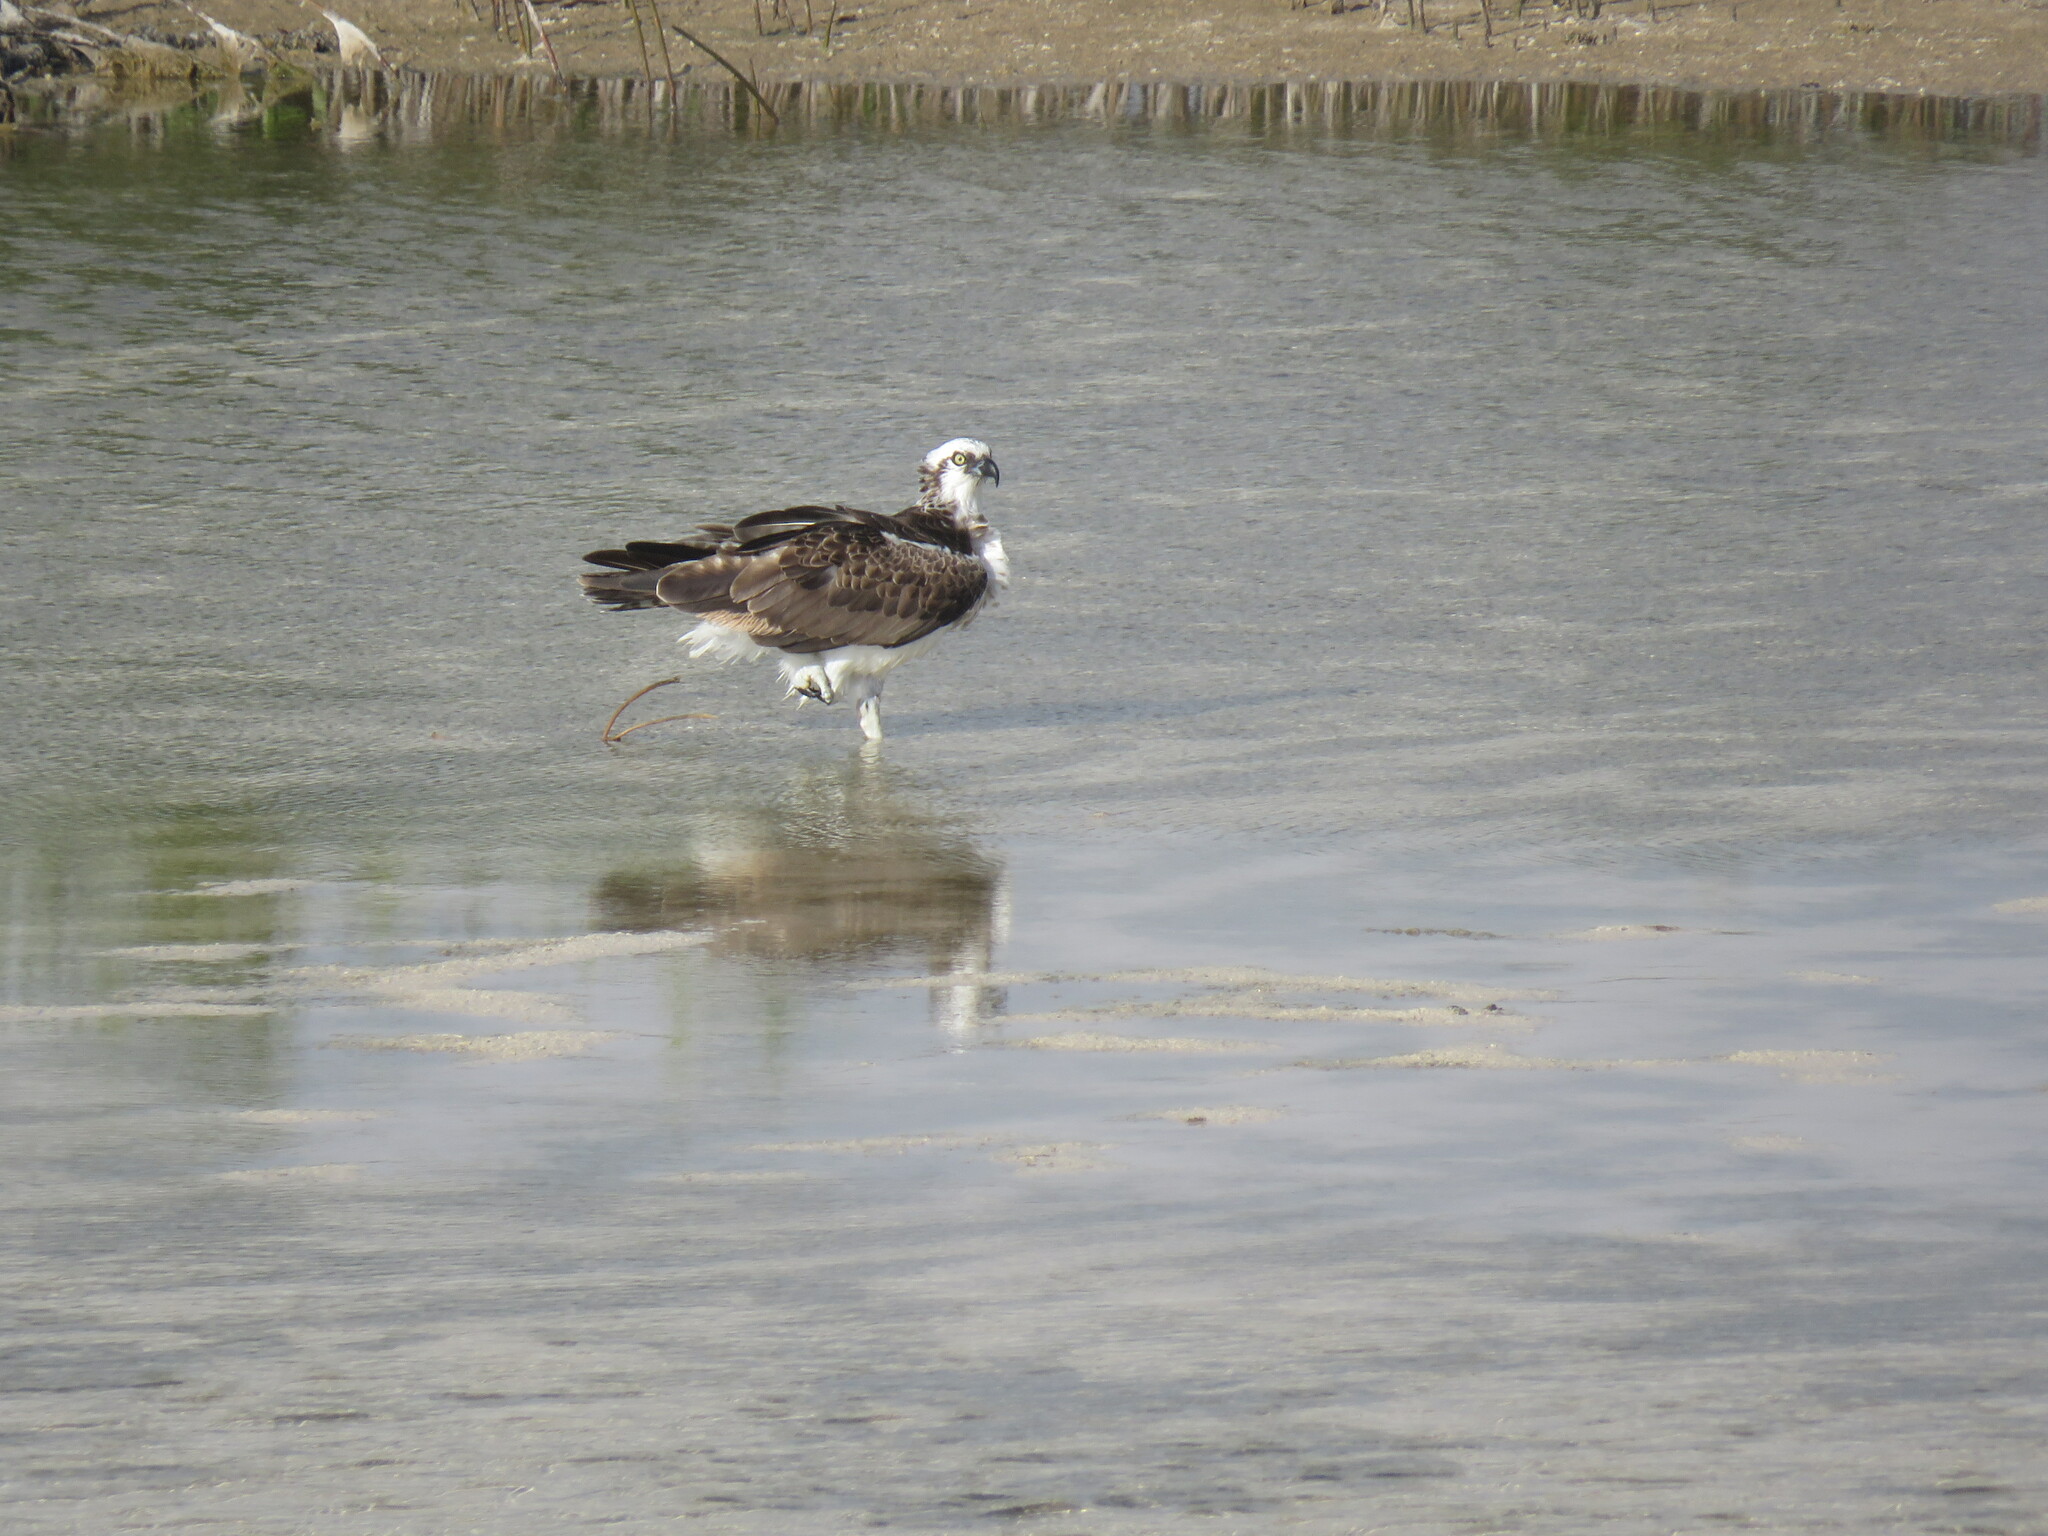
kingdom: Animalia
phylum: Chordata
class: Aves
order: Accipitriformes
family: Pandionidae
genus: Pandion
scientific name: Pandion haliaetus
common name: Osprey
